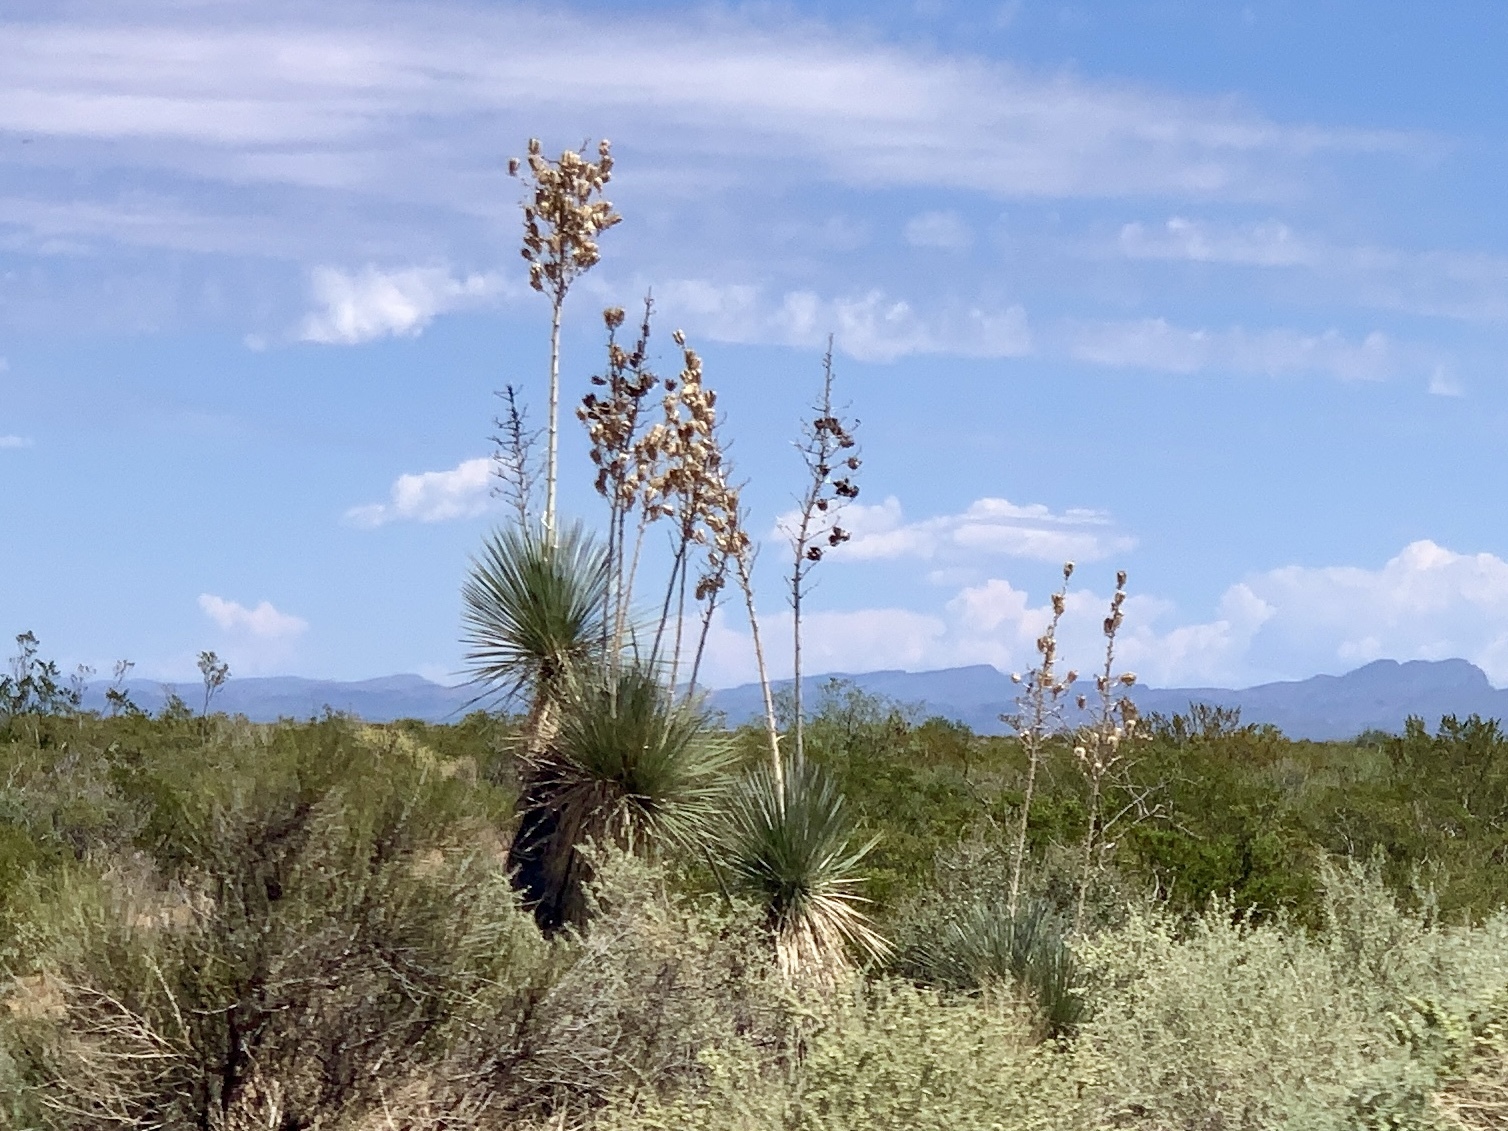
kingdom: Plantae
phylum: Tracheophyta
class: Liliopsida
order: Asparagales
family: Asparagaceae
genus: Yucca
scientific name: Yucca elata
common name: Palmella
